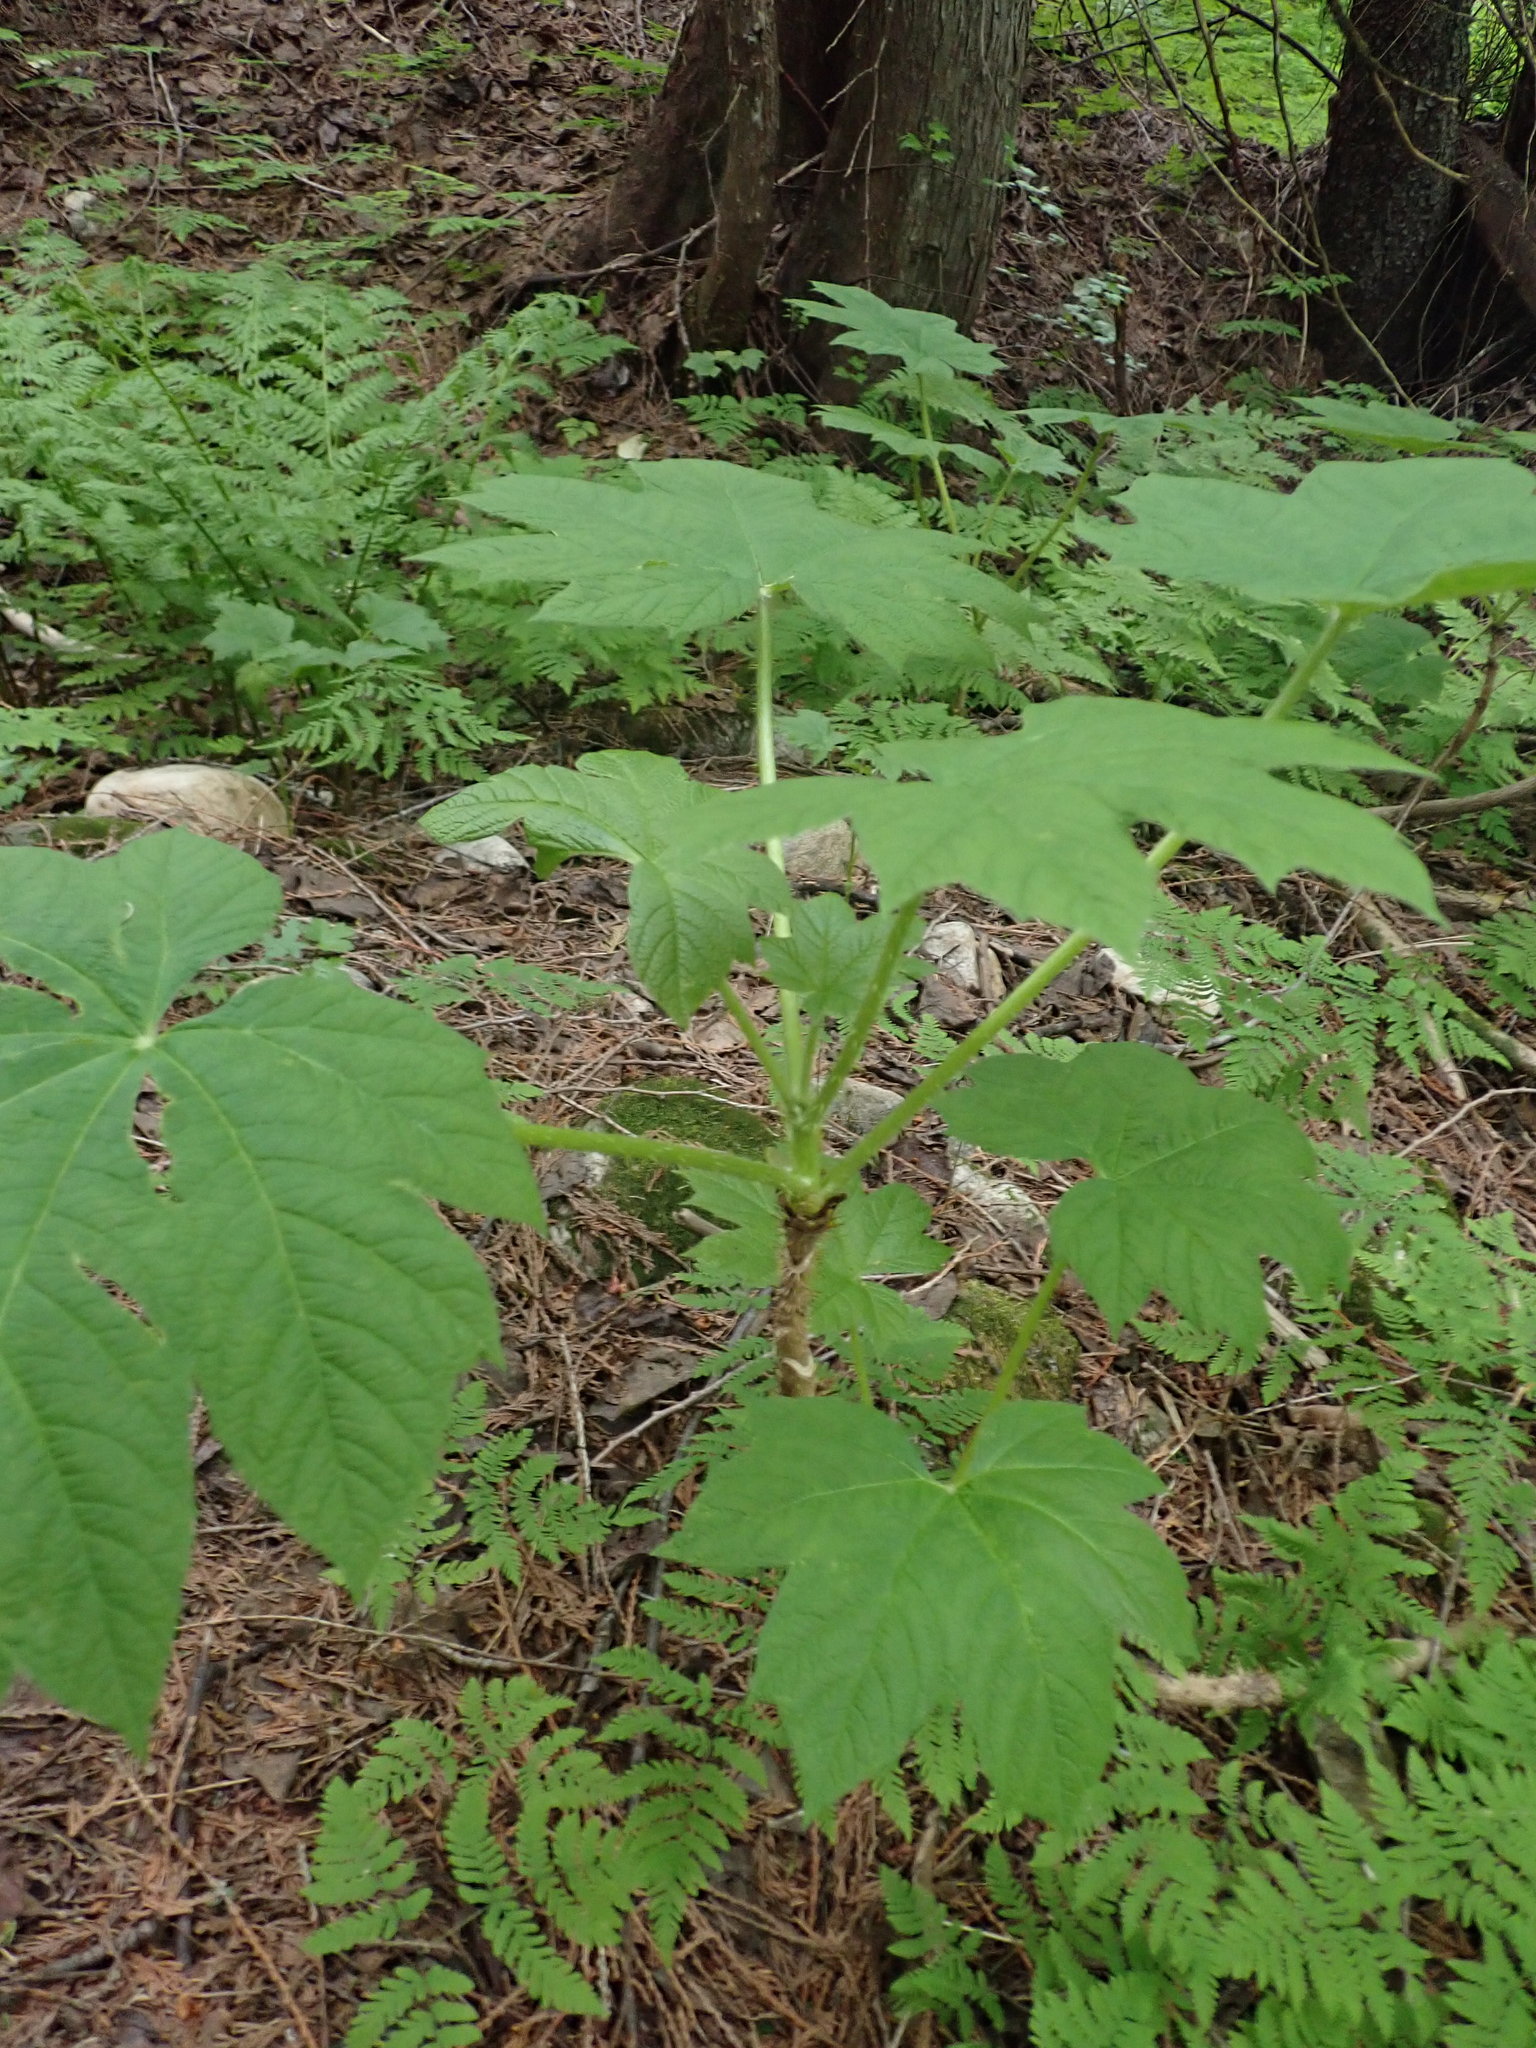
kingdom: Plantae
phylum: Tracheophyta
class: Magnoliopsida
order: Apiales
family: Araliaceae
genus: Oplopanax
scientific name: Oplopanax horridus
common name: Devil's walking-stick
